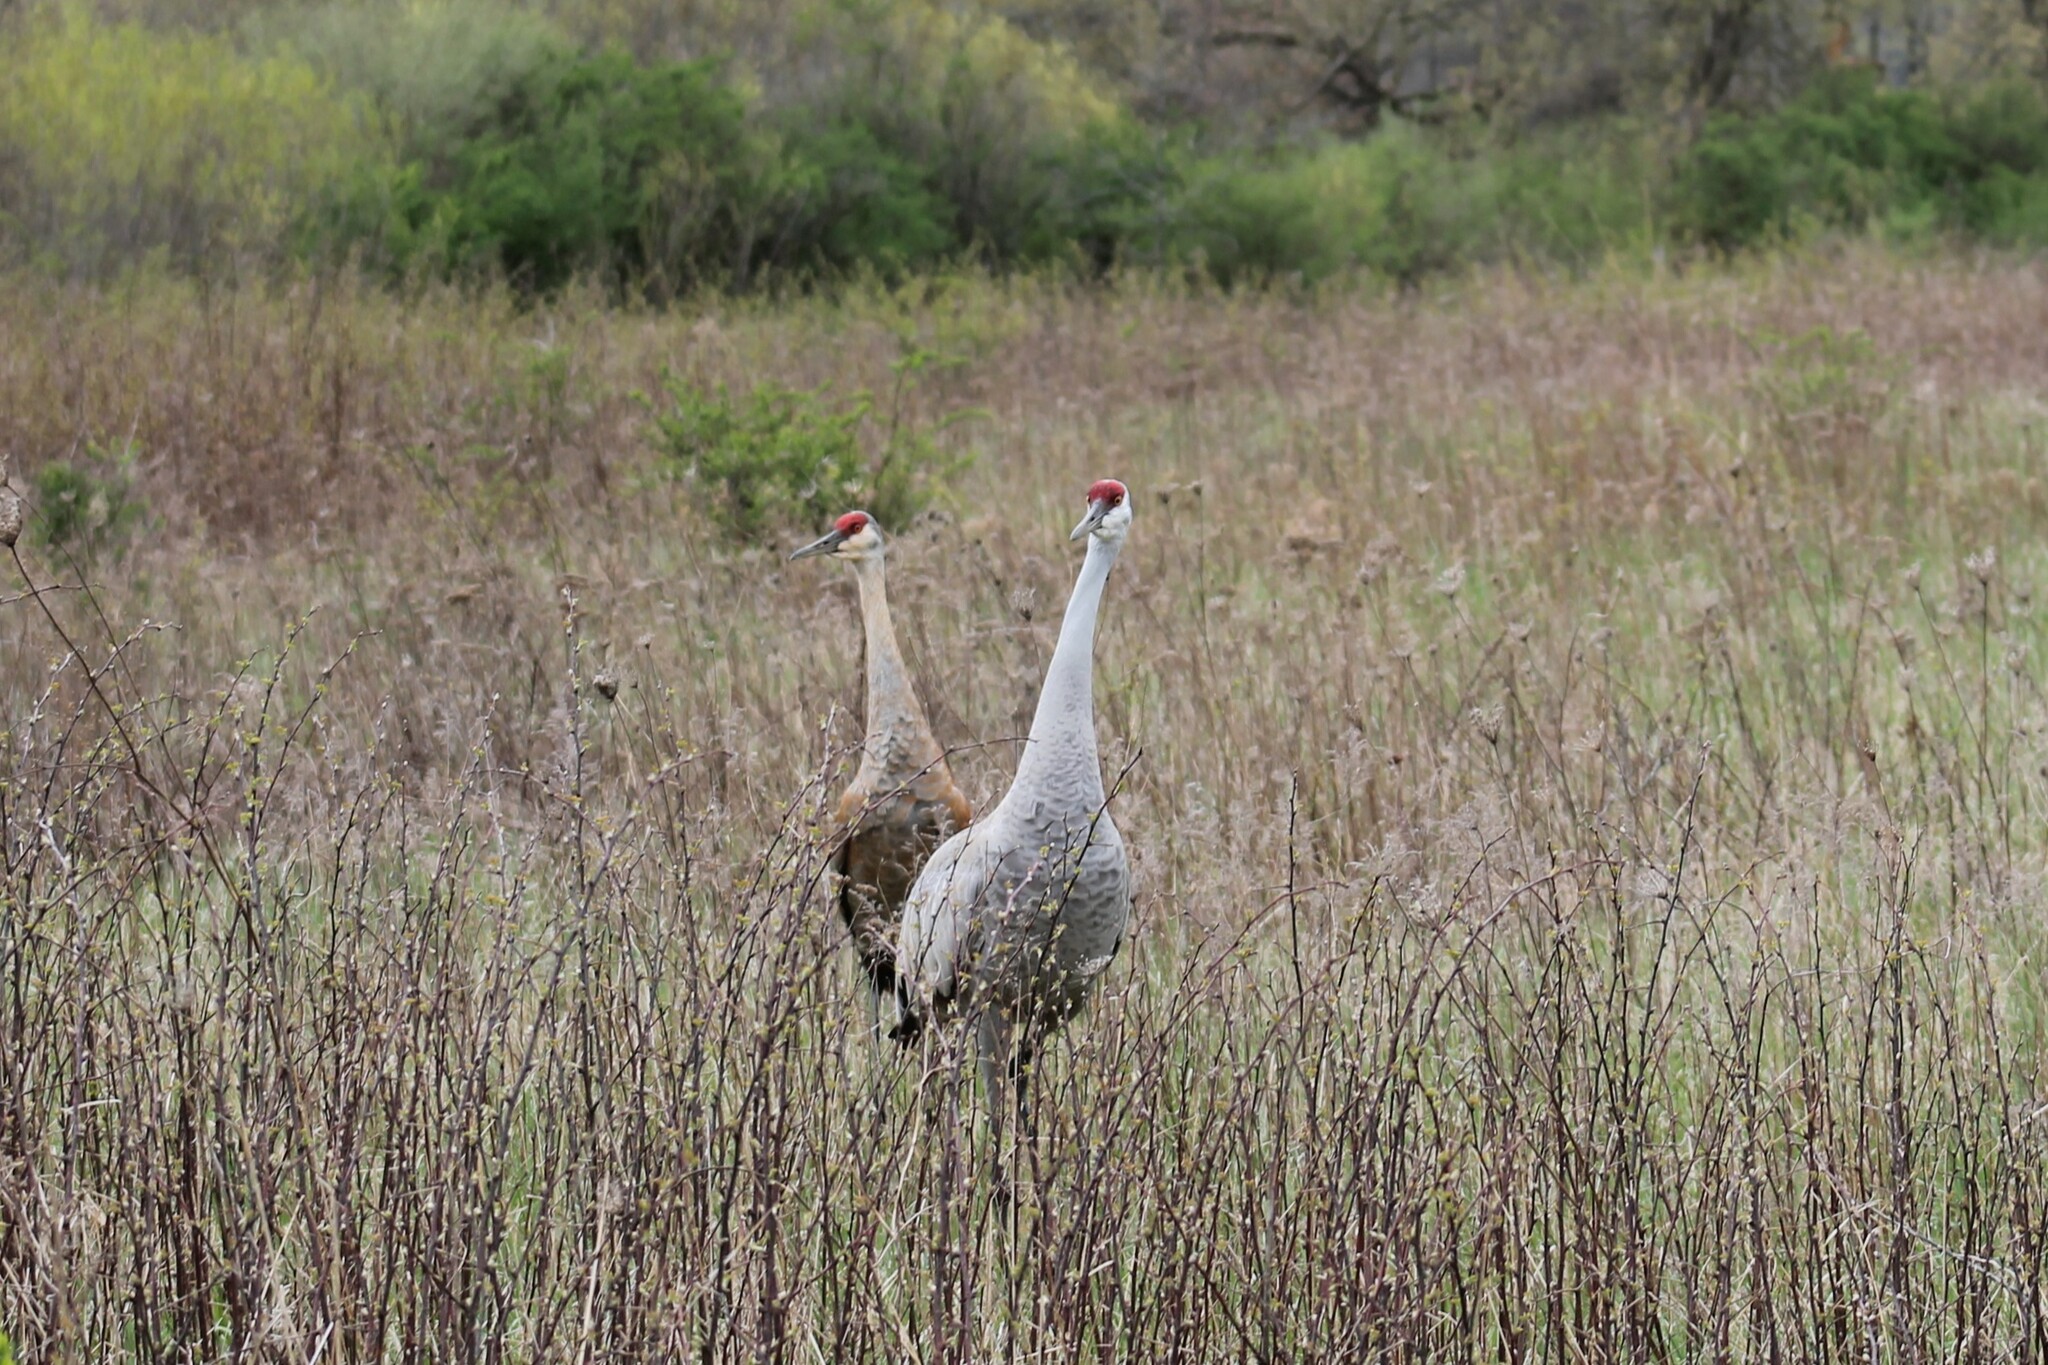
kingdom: Animalia
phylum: Chordata
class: Aves
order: Gruiformes
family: Gruidae
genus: Grus
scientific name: Grus canadensis
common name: Sandhill crane
